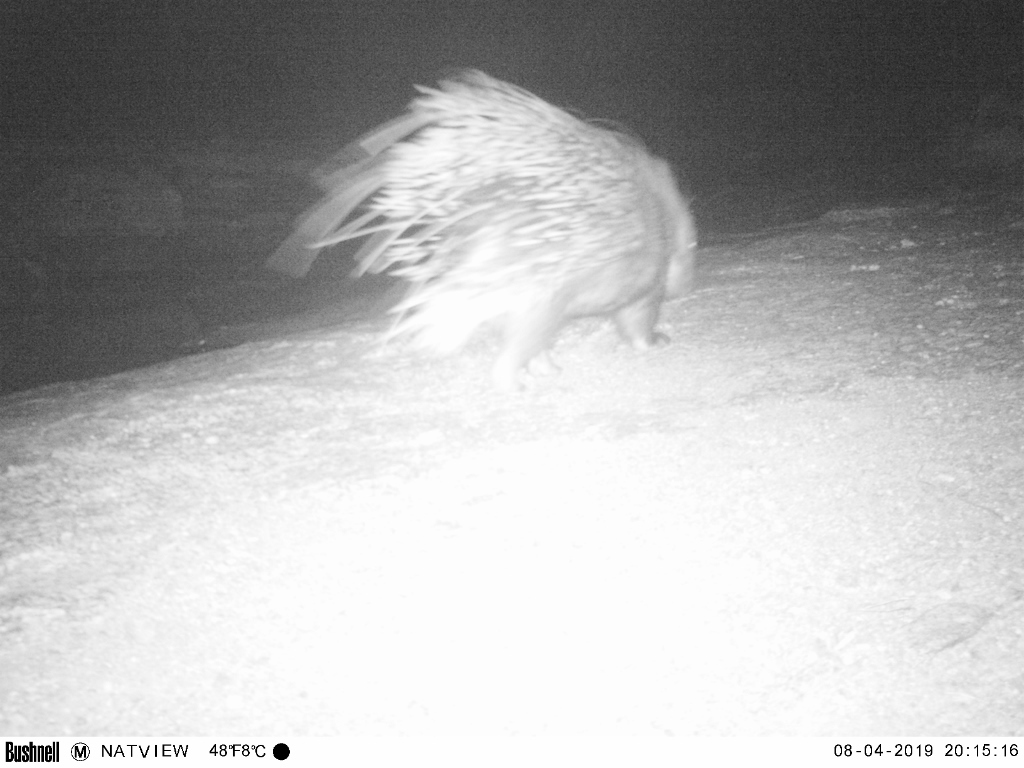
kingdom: Animalia
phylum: Chordata
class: Mammalia
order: Rodentia
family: Hystricidae
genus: Hystrix
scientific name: Hystrix africaeaustralis
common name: Cape porcupine
